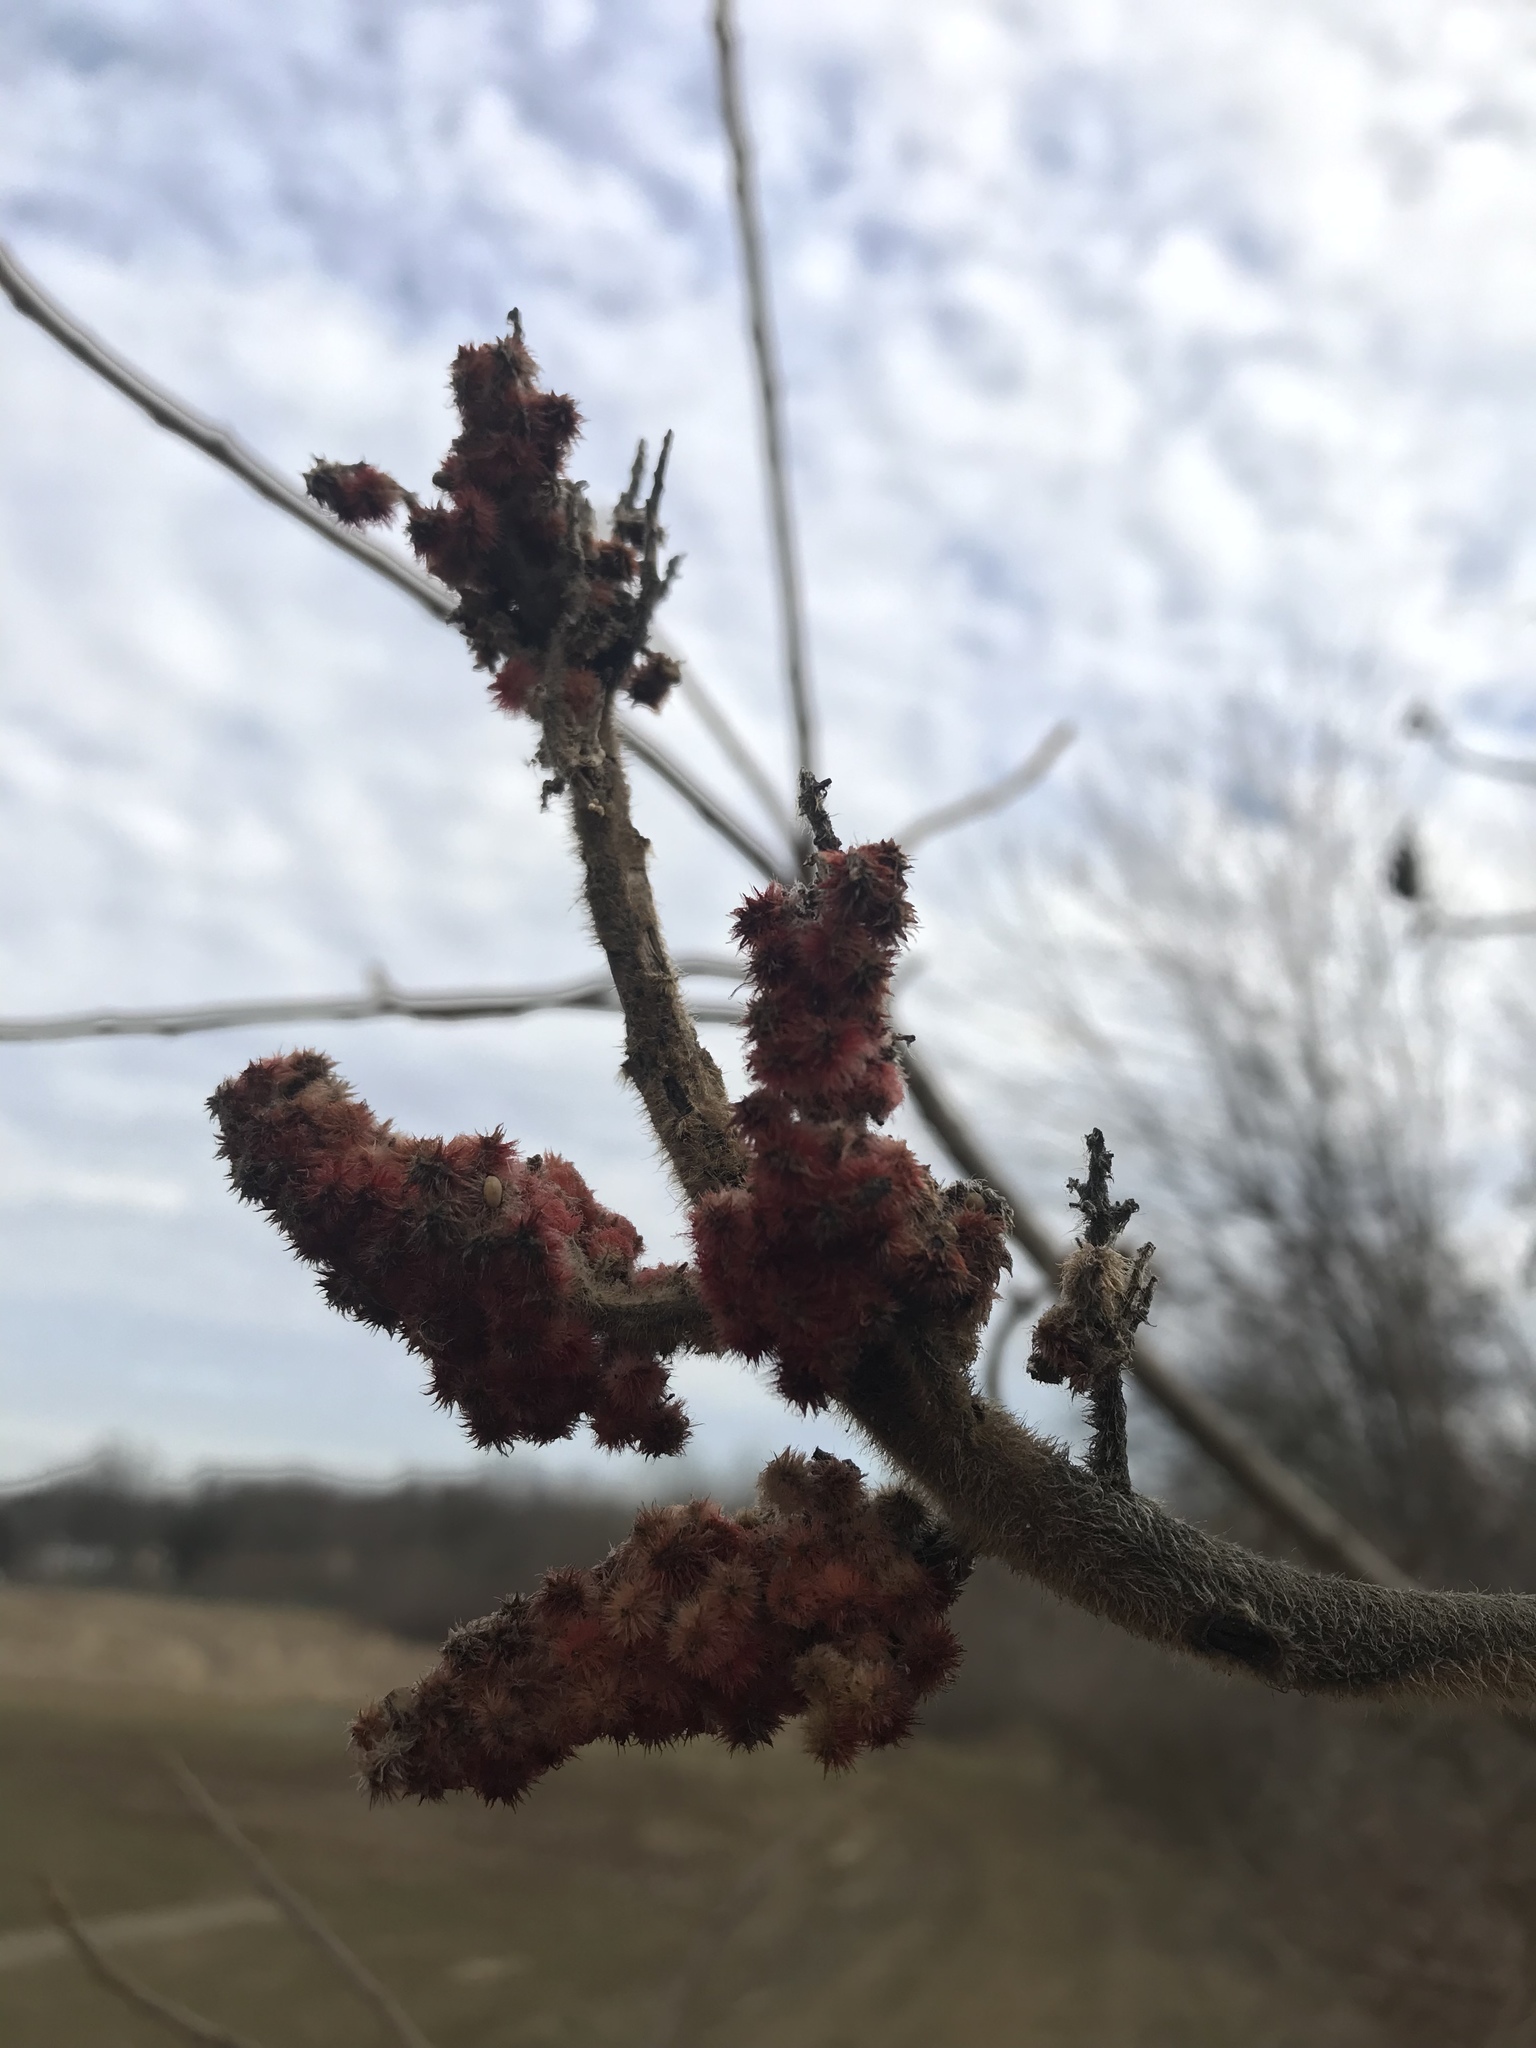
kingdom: Plantae
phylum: Tracheophyta
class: Magnoliopsida
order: Sapindales
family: Anacardiaceae
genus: Rhus
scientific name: Rhus typhina
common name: Staghorn sumac
